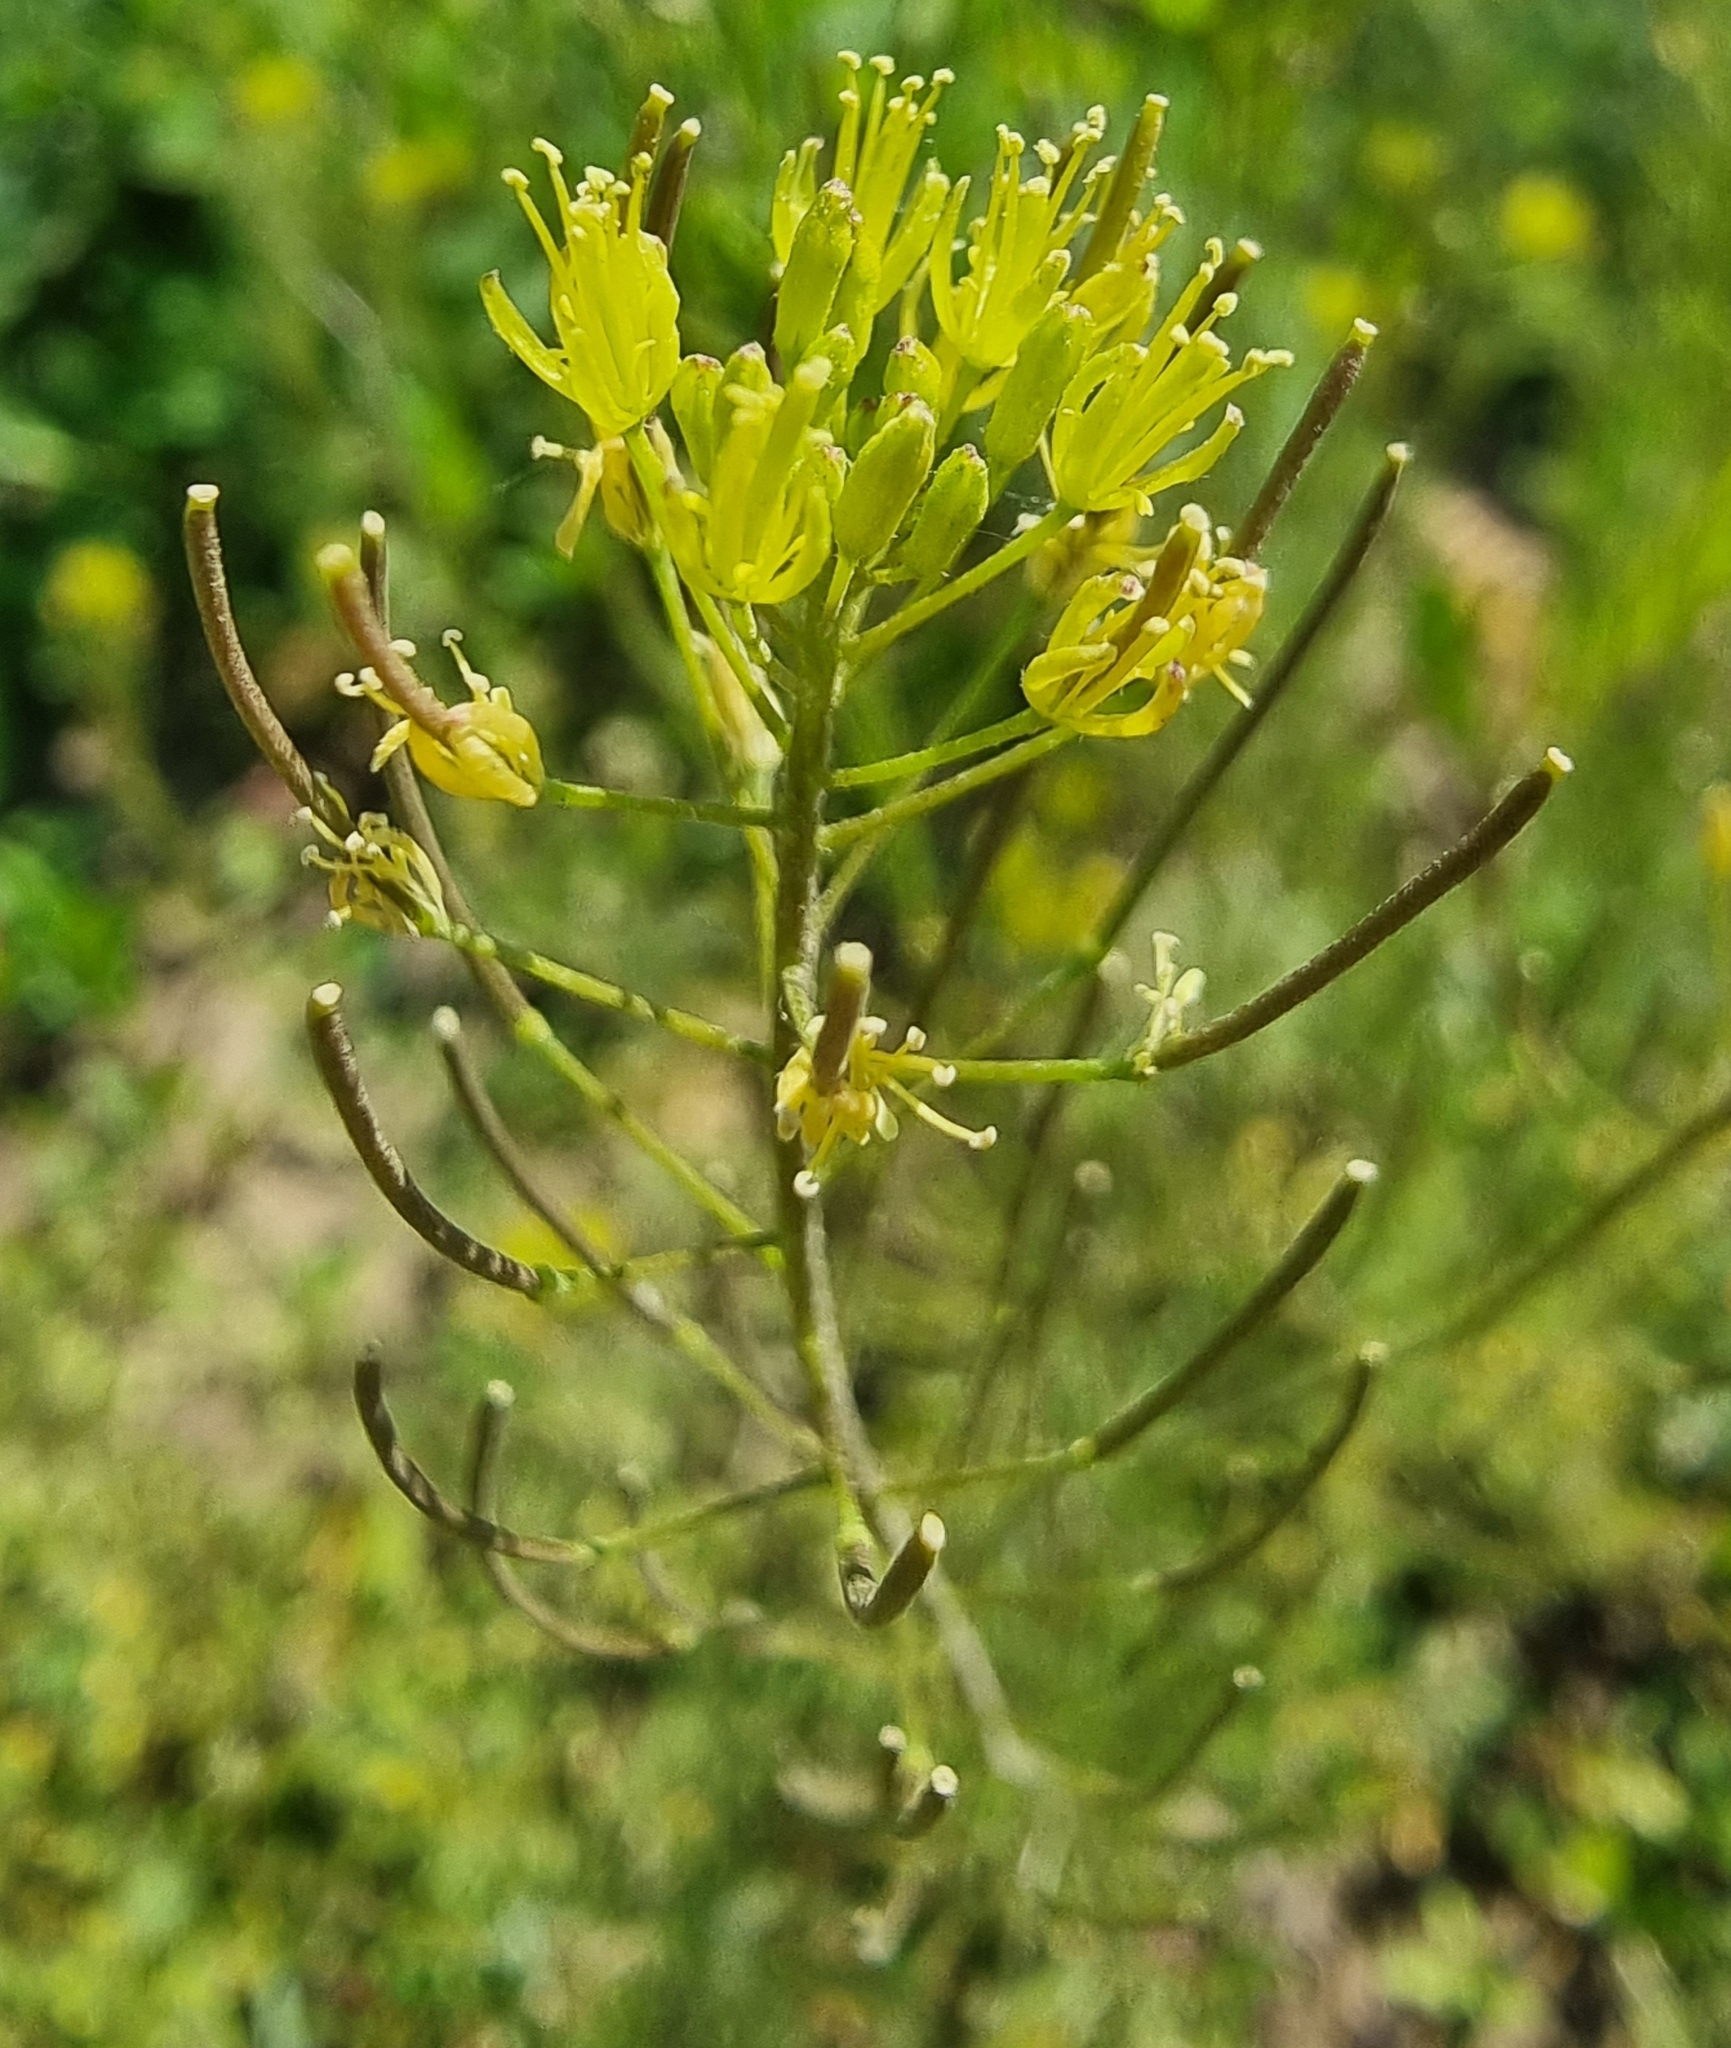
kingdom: Plantae
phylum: Tracheophyta
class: Magnoliopsida
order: Brassicales
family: Brassicaceae
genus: Descurainia
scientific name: Descurainia sophia
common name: Flixweed
